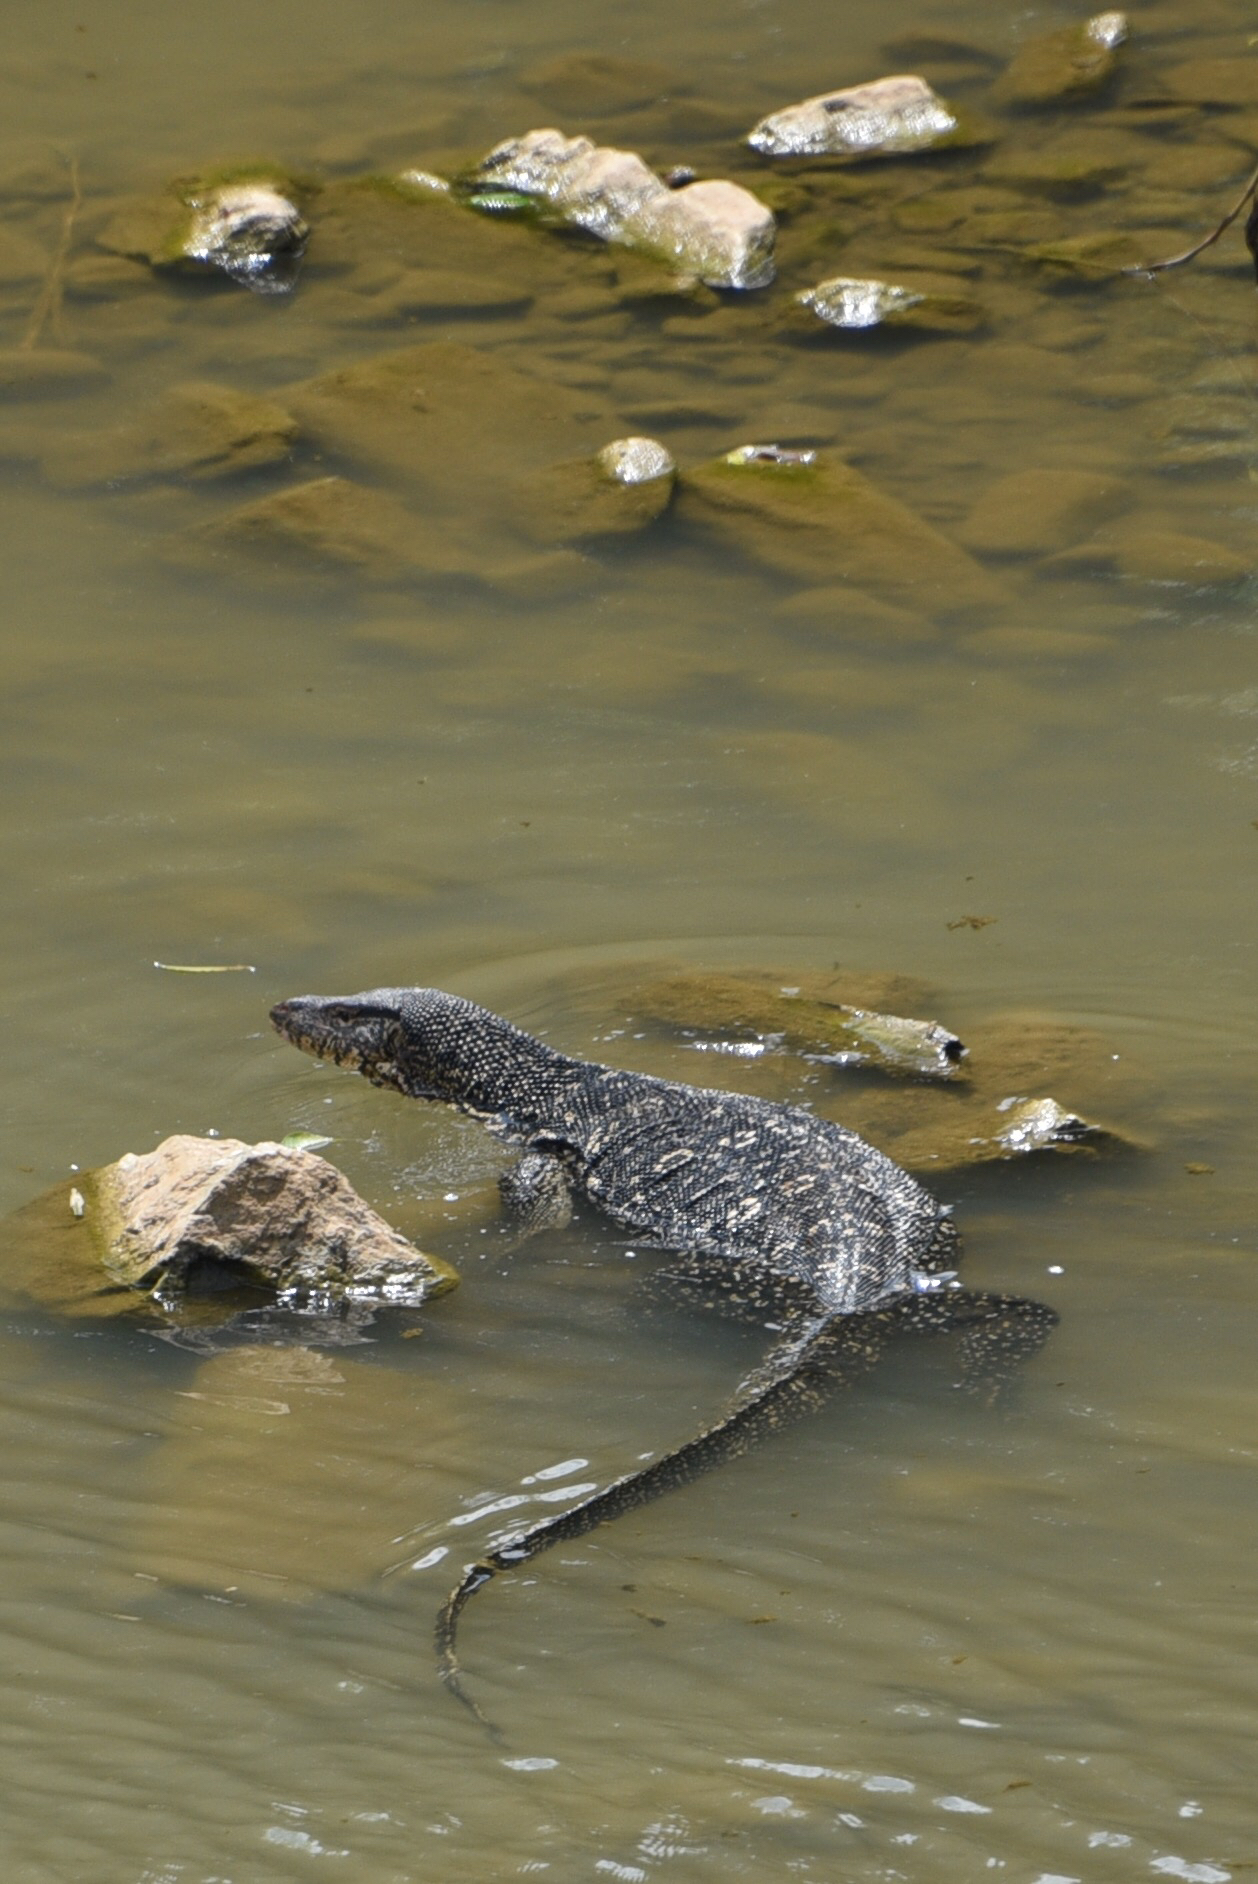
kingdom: Animalia
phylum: Chordata
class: Squamata
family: Varanidae
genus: Varanus
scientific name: Varanus salvator
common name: Common water monitor
